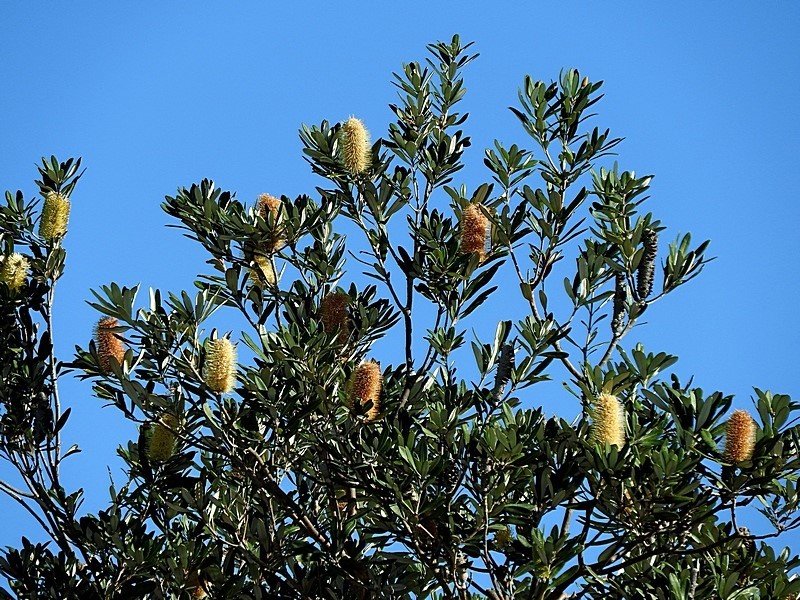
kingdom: Plantae
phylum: Tracheophyta
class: Magnoliopsida
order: Proteales
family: Proteaceae
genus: Banksia
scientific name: Banksia integrifolia
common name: White-honeysuckle
